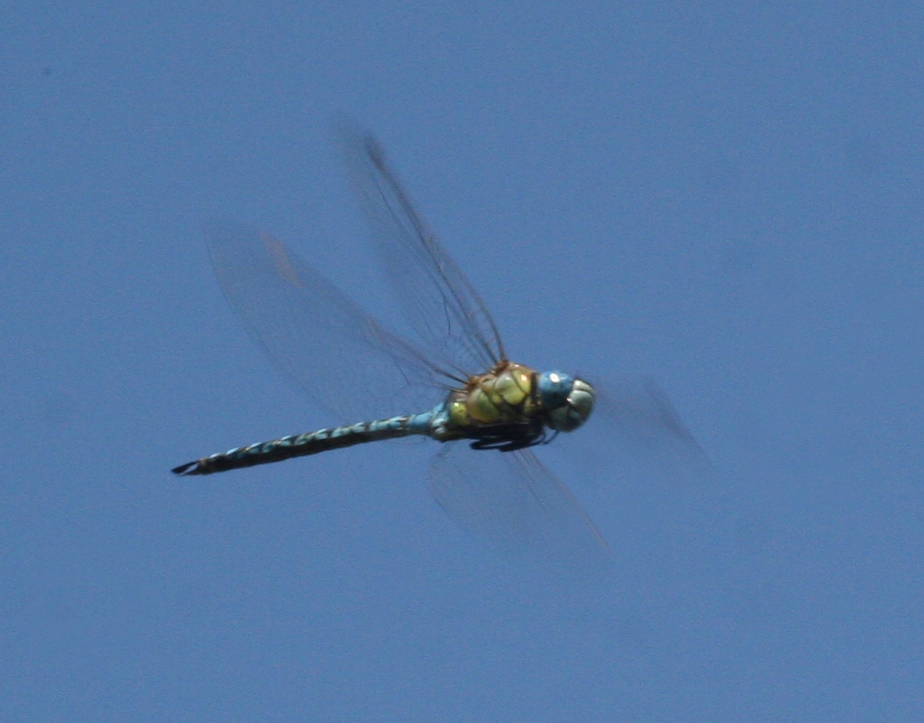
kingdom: Animalia
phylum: Arthropoda
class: Insecta
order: Odonata
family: Aeshnidae
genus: Aeshna
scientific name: Aeshna affinis
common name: Southern migrant hawker
